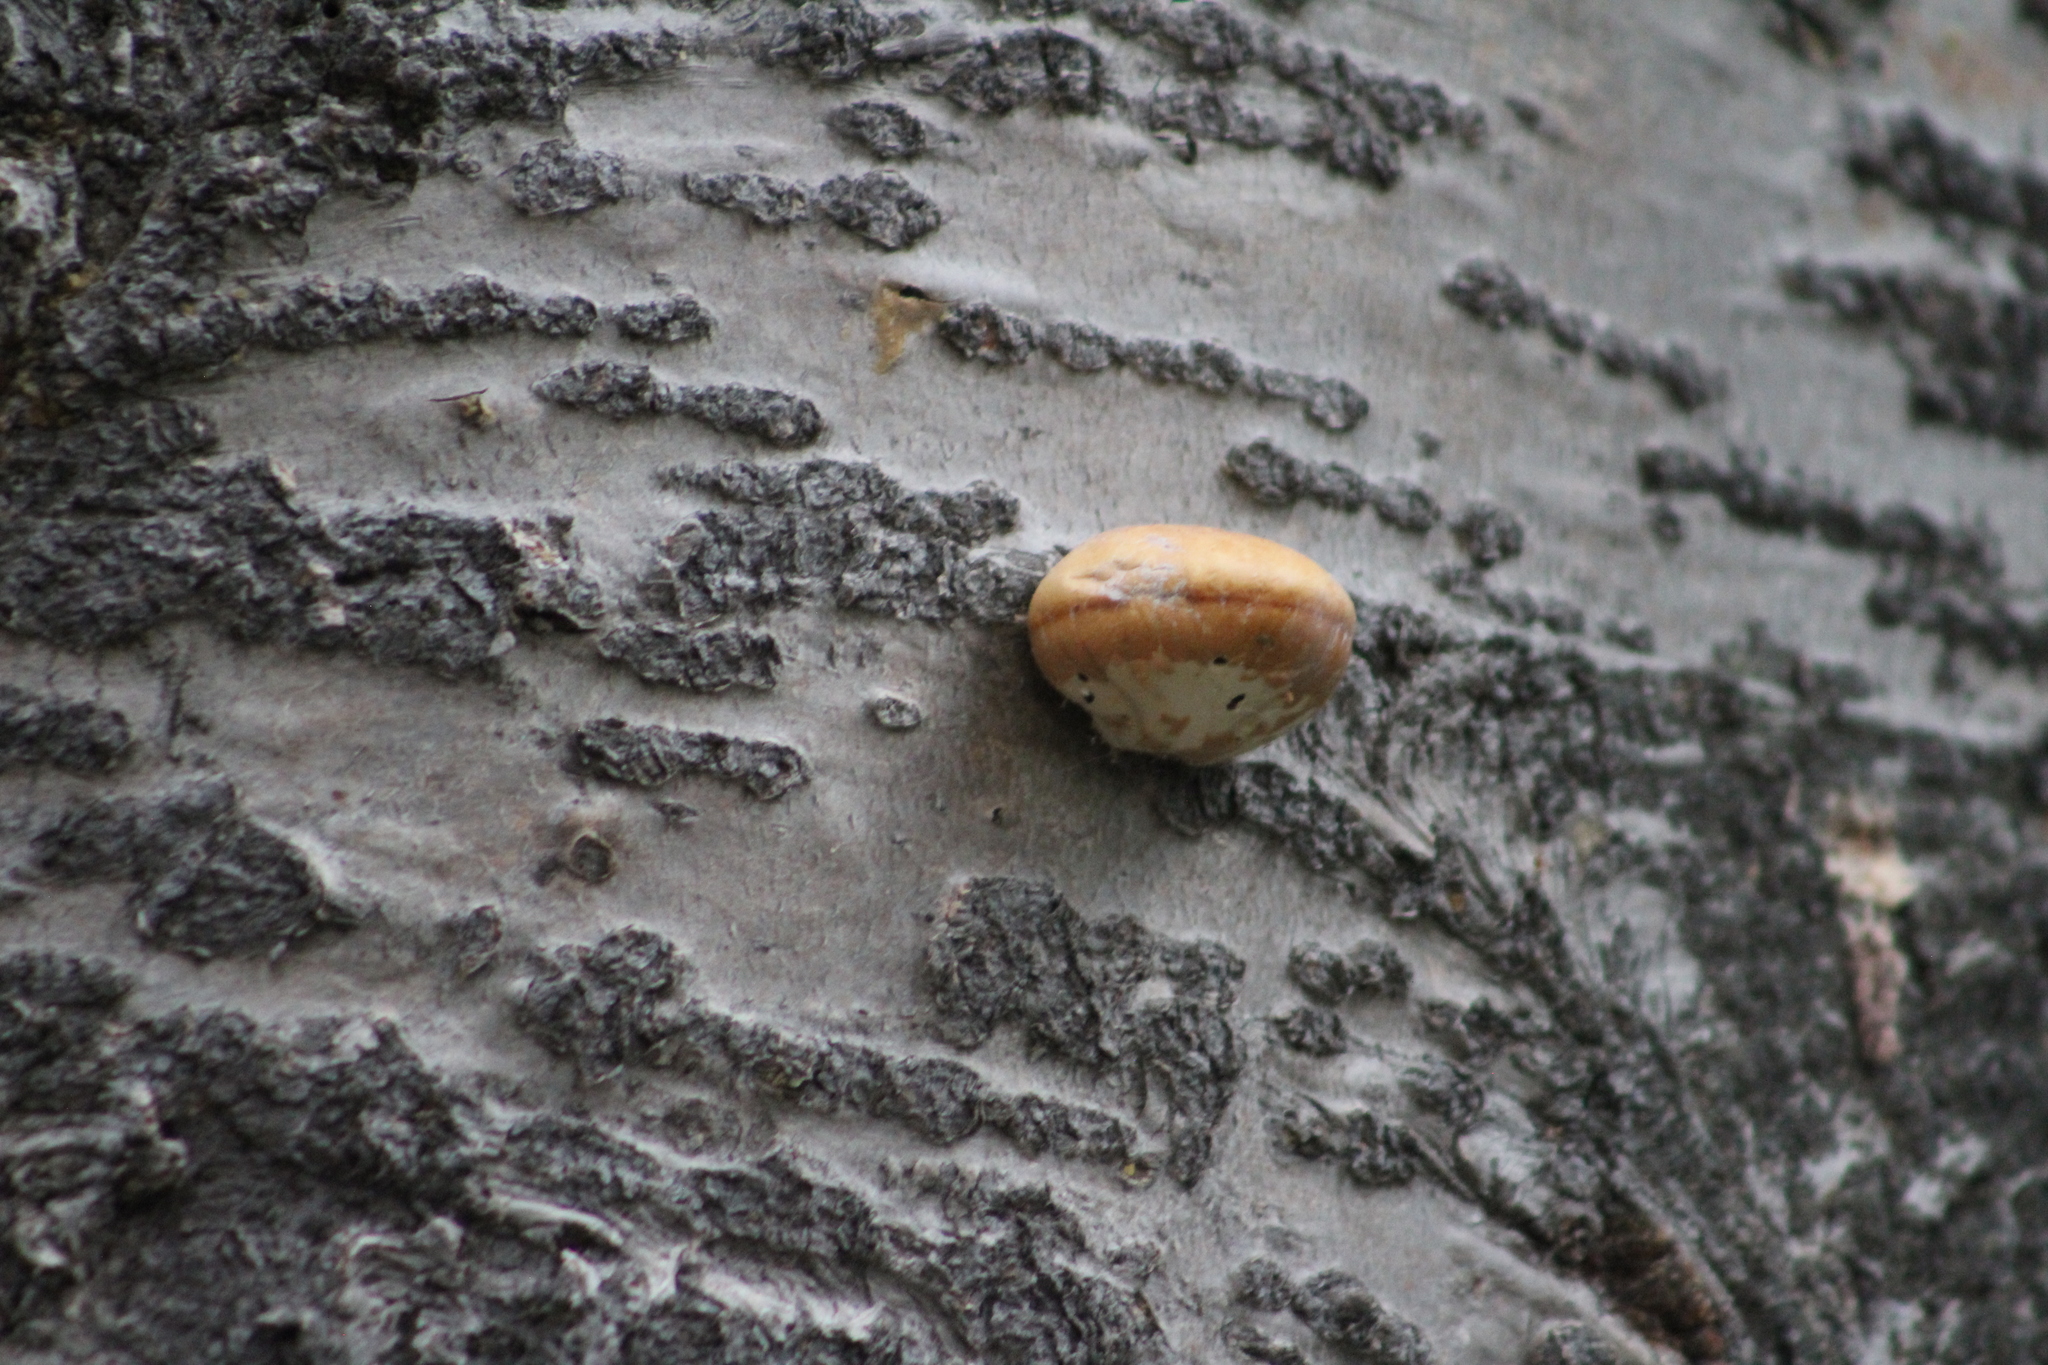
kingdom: Fungi
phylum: Basidiomycota
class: Agaricomycetes
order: Polyporales
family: Polyporaceae
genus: Cryptoporus
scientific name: Cryptoporus volvatus
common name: Veiled polypore
